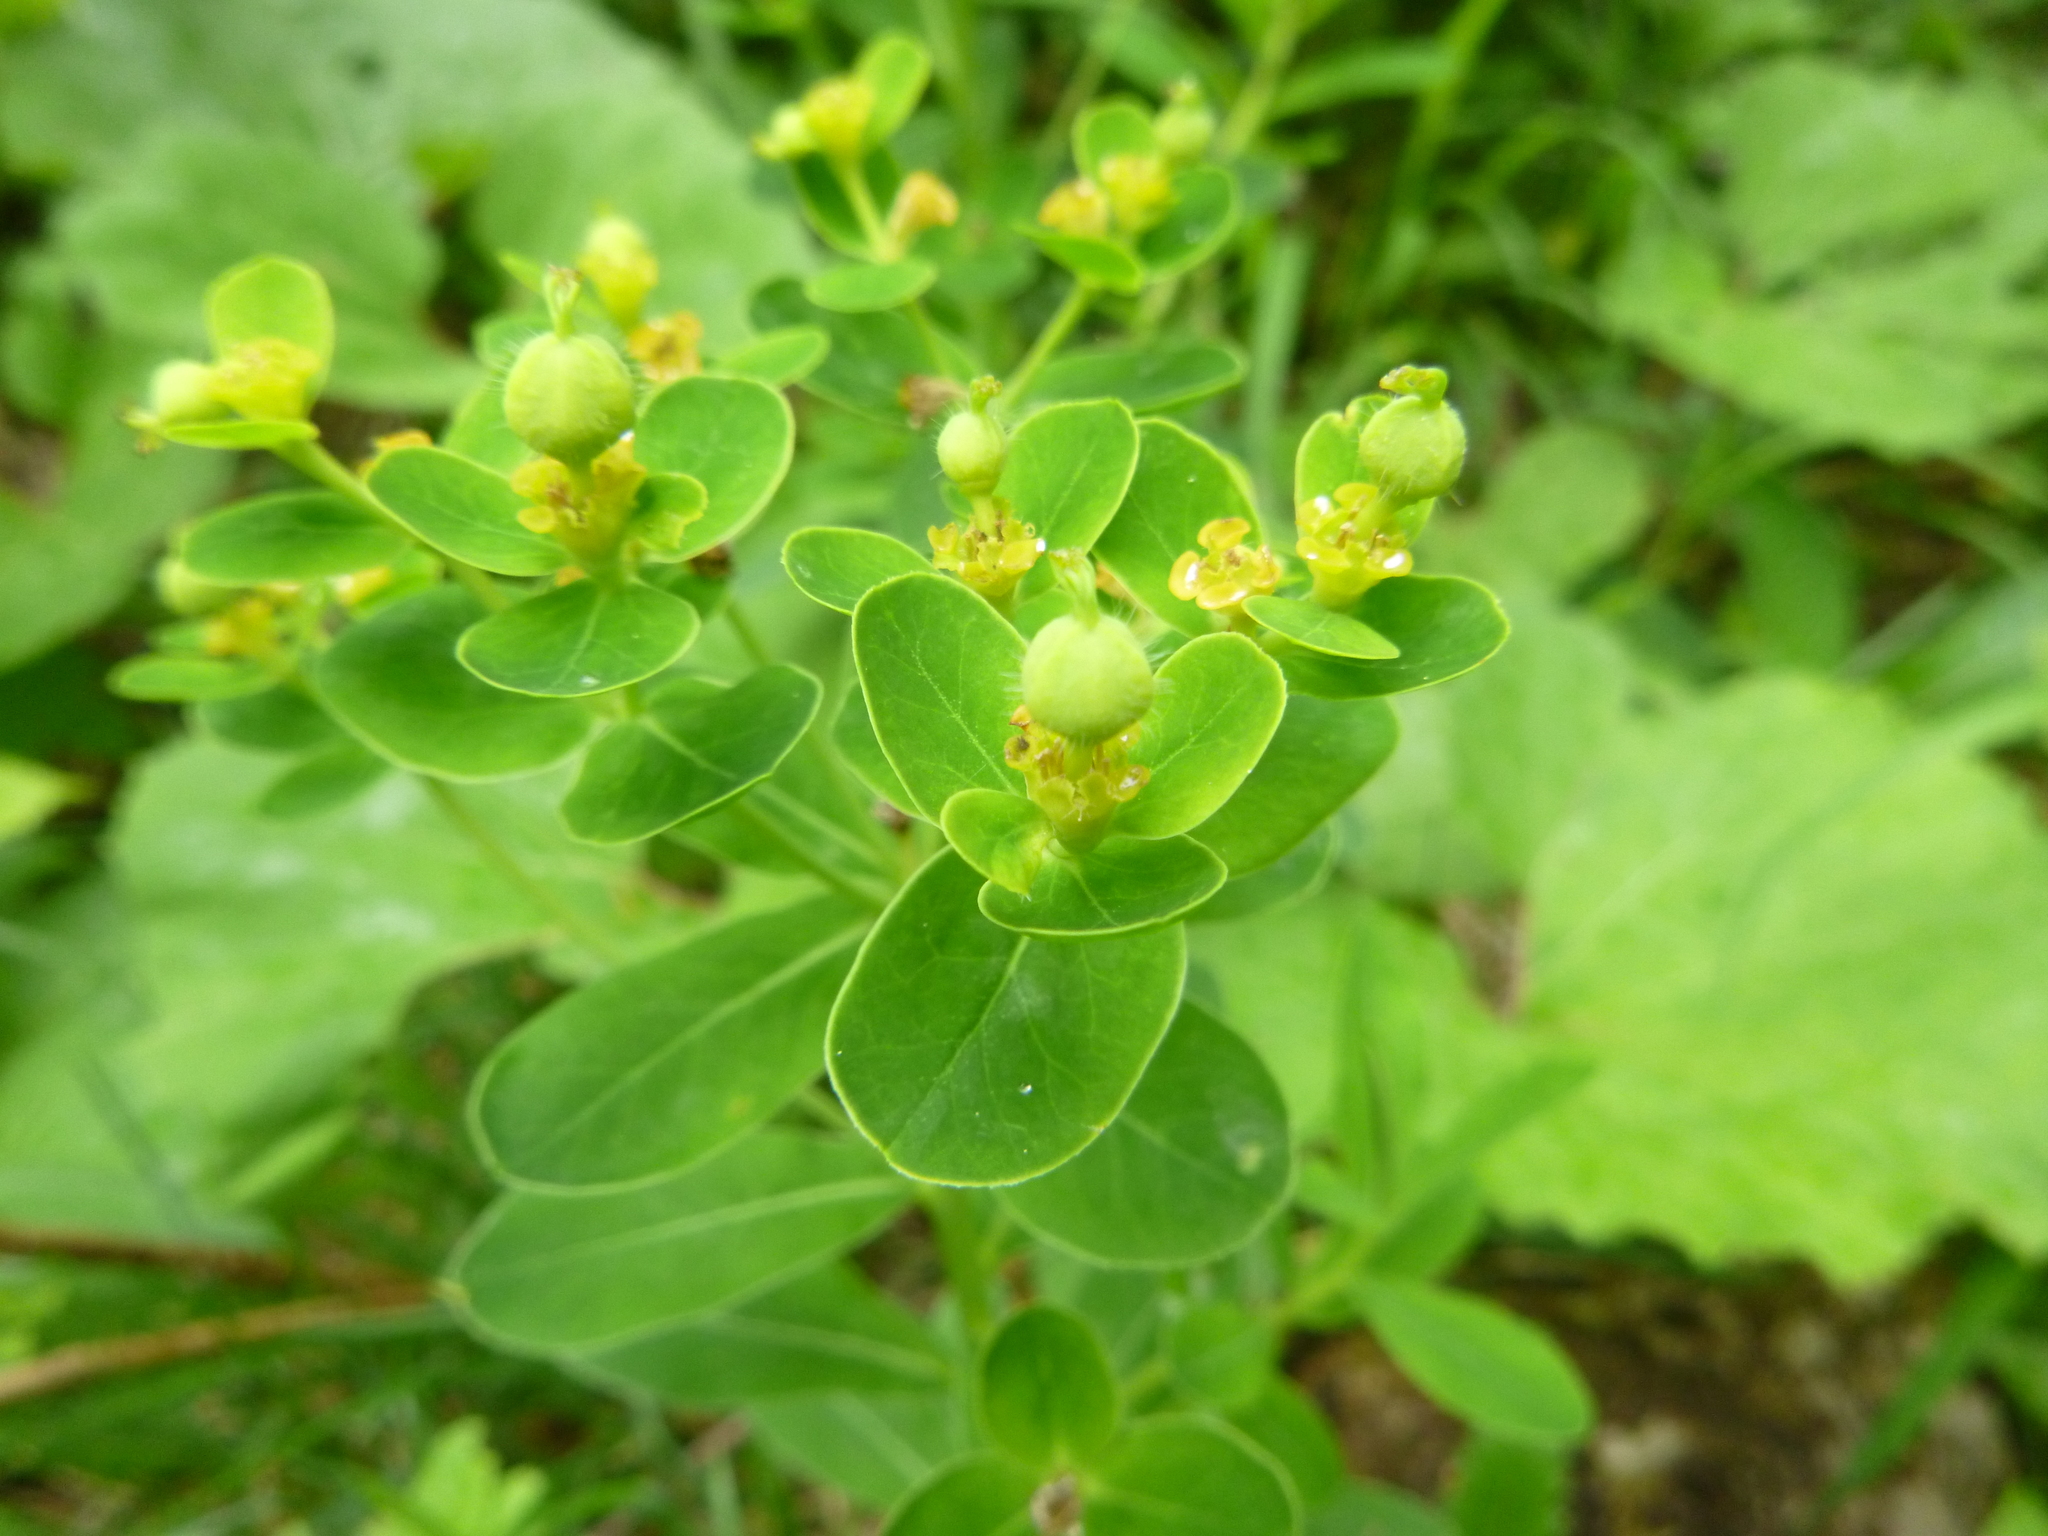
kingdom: Plantae
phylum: Tracheophyta
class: Magnoliopsida
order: Malpighiales
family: Euphorbiaceae
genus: Euphorbia
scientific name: Euphorbia austriaca
